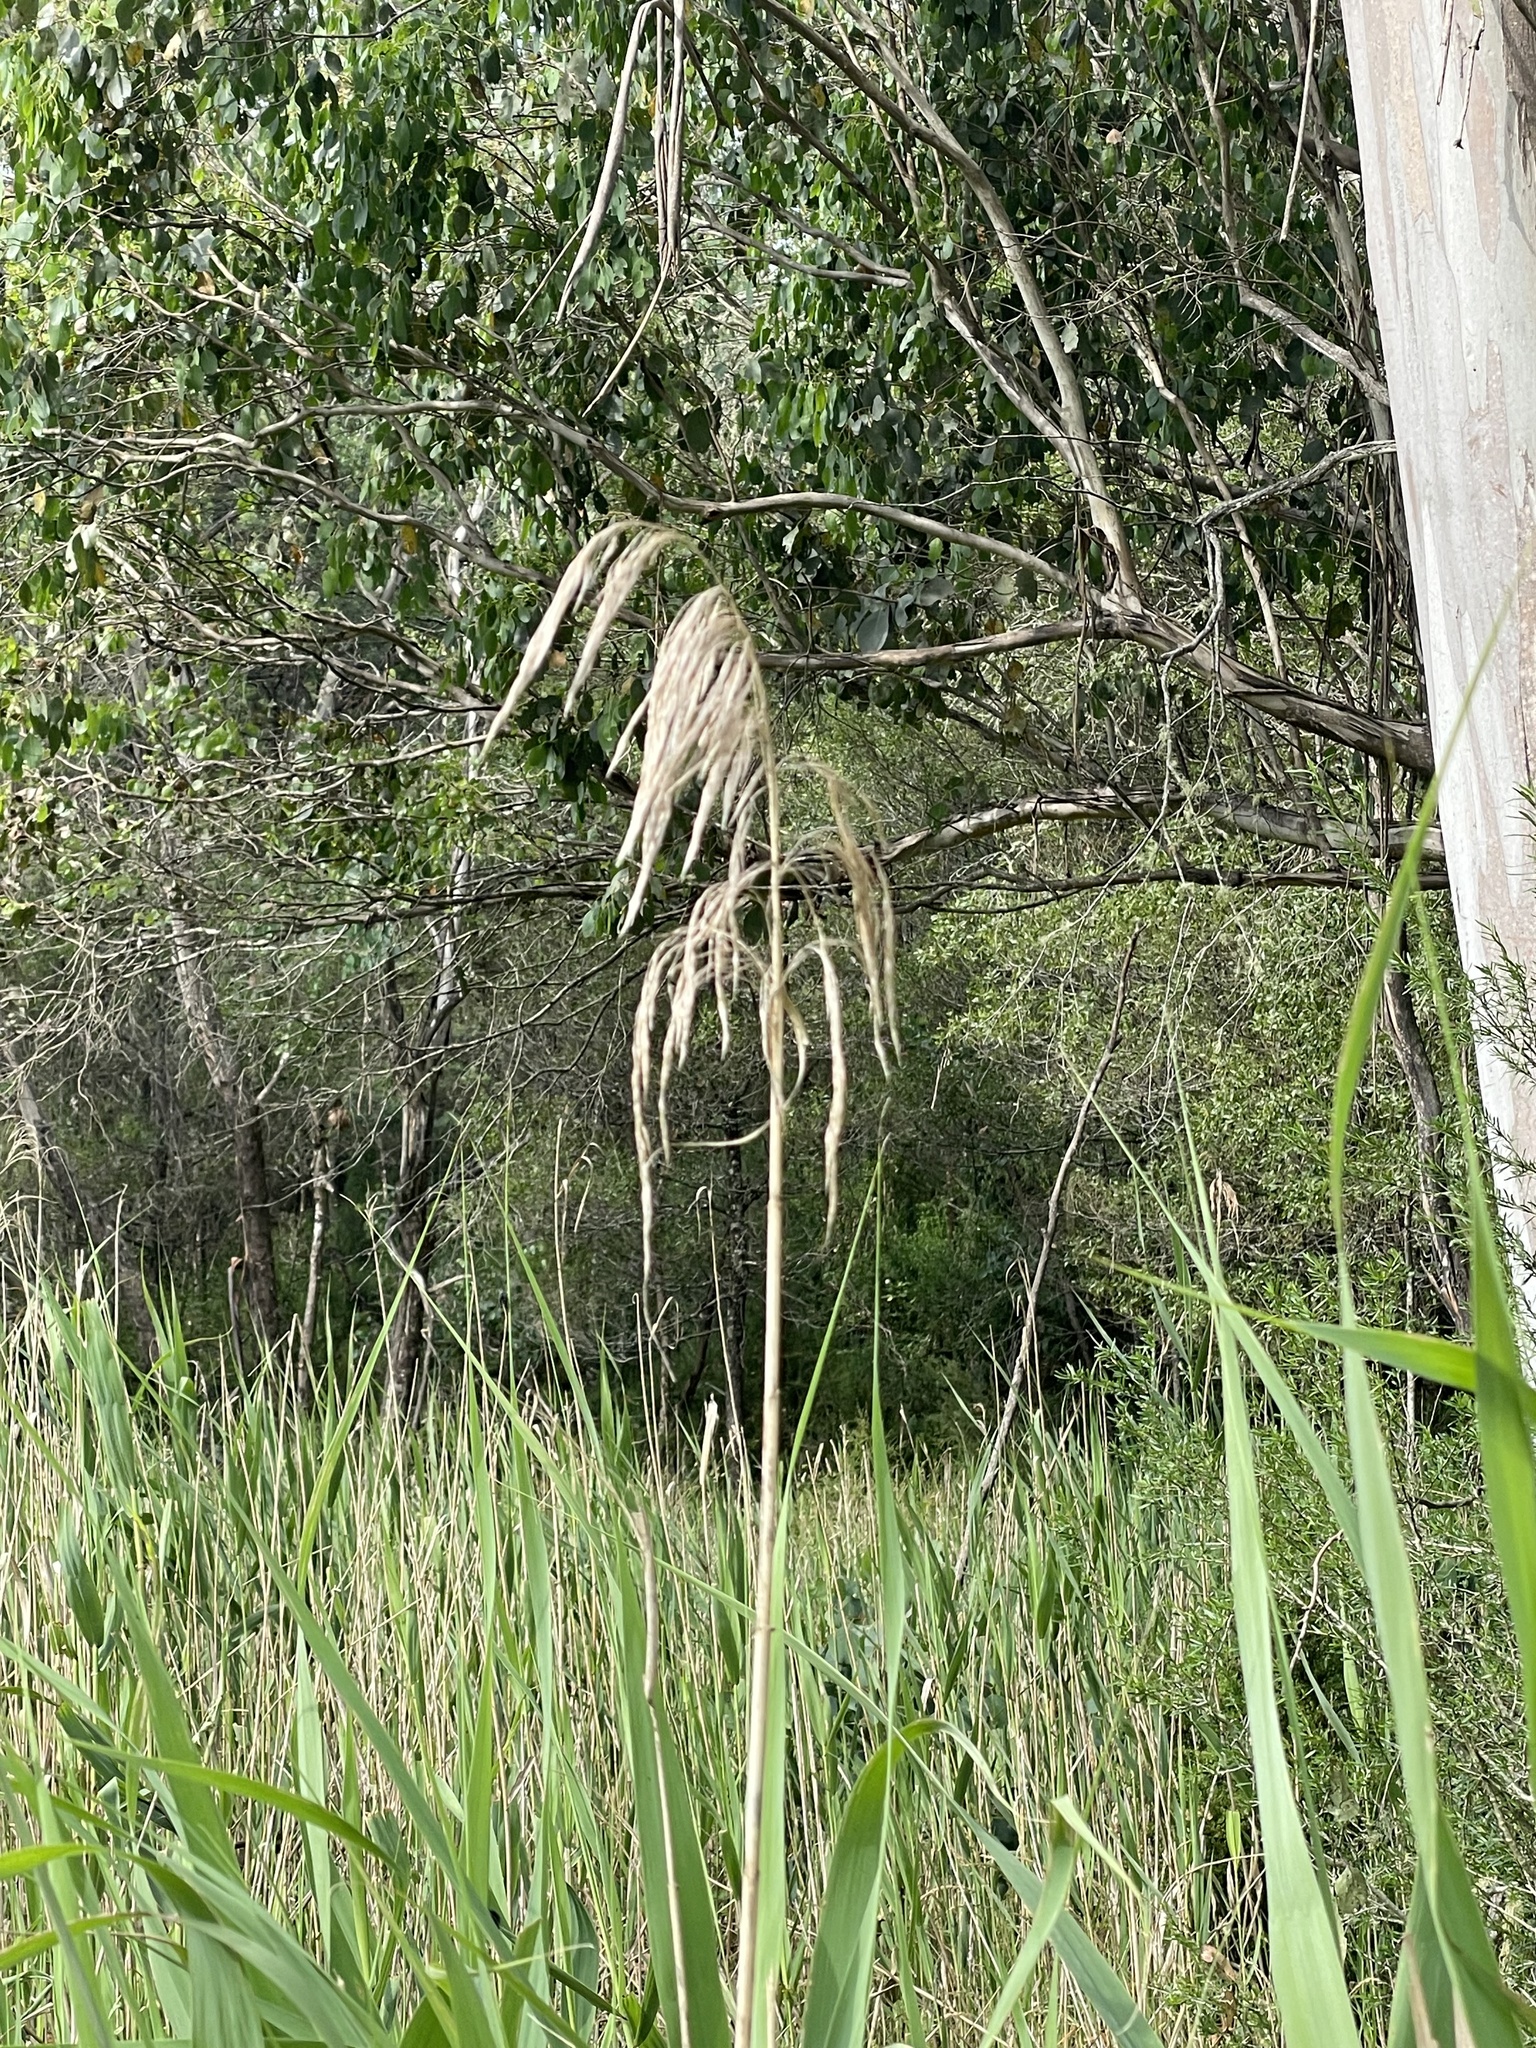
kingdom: Plantae
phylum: Tracheophyta
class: Liliopsida
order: Poales
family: Poaceae
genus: Phragmites
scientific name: Phragmites australis
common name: Common reed
